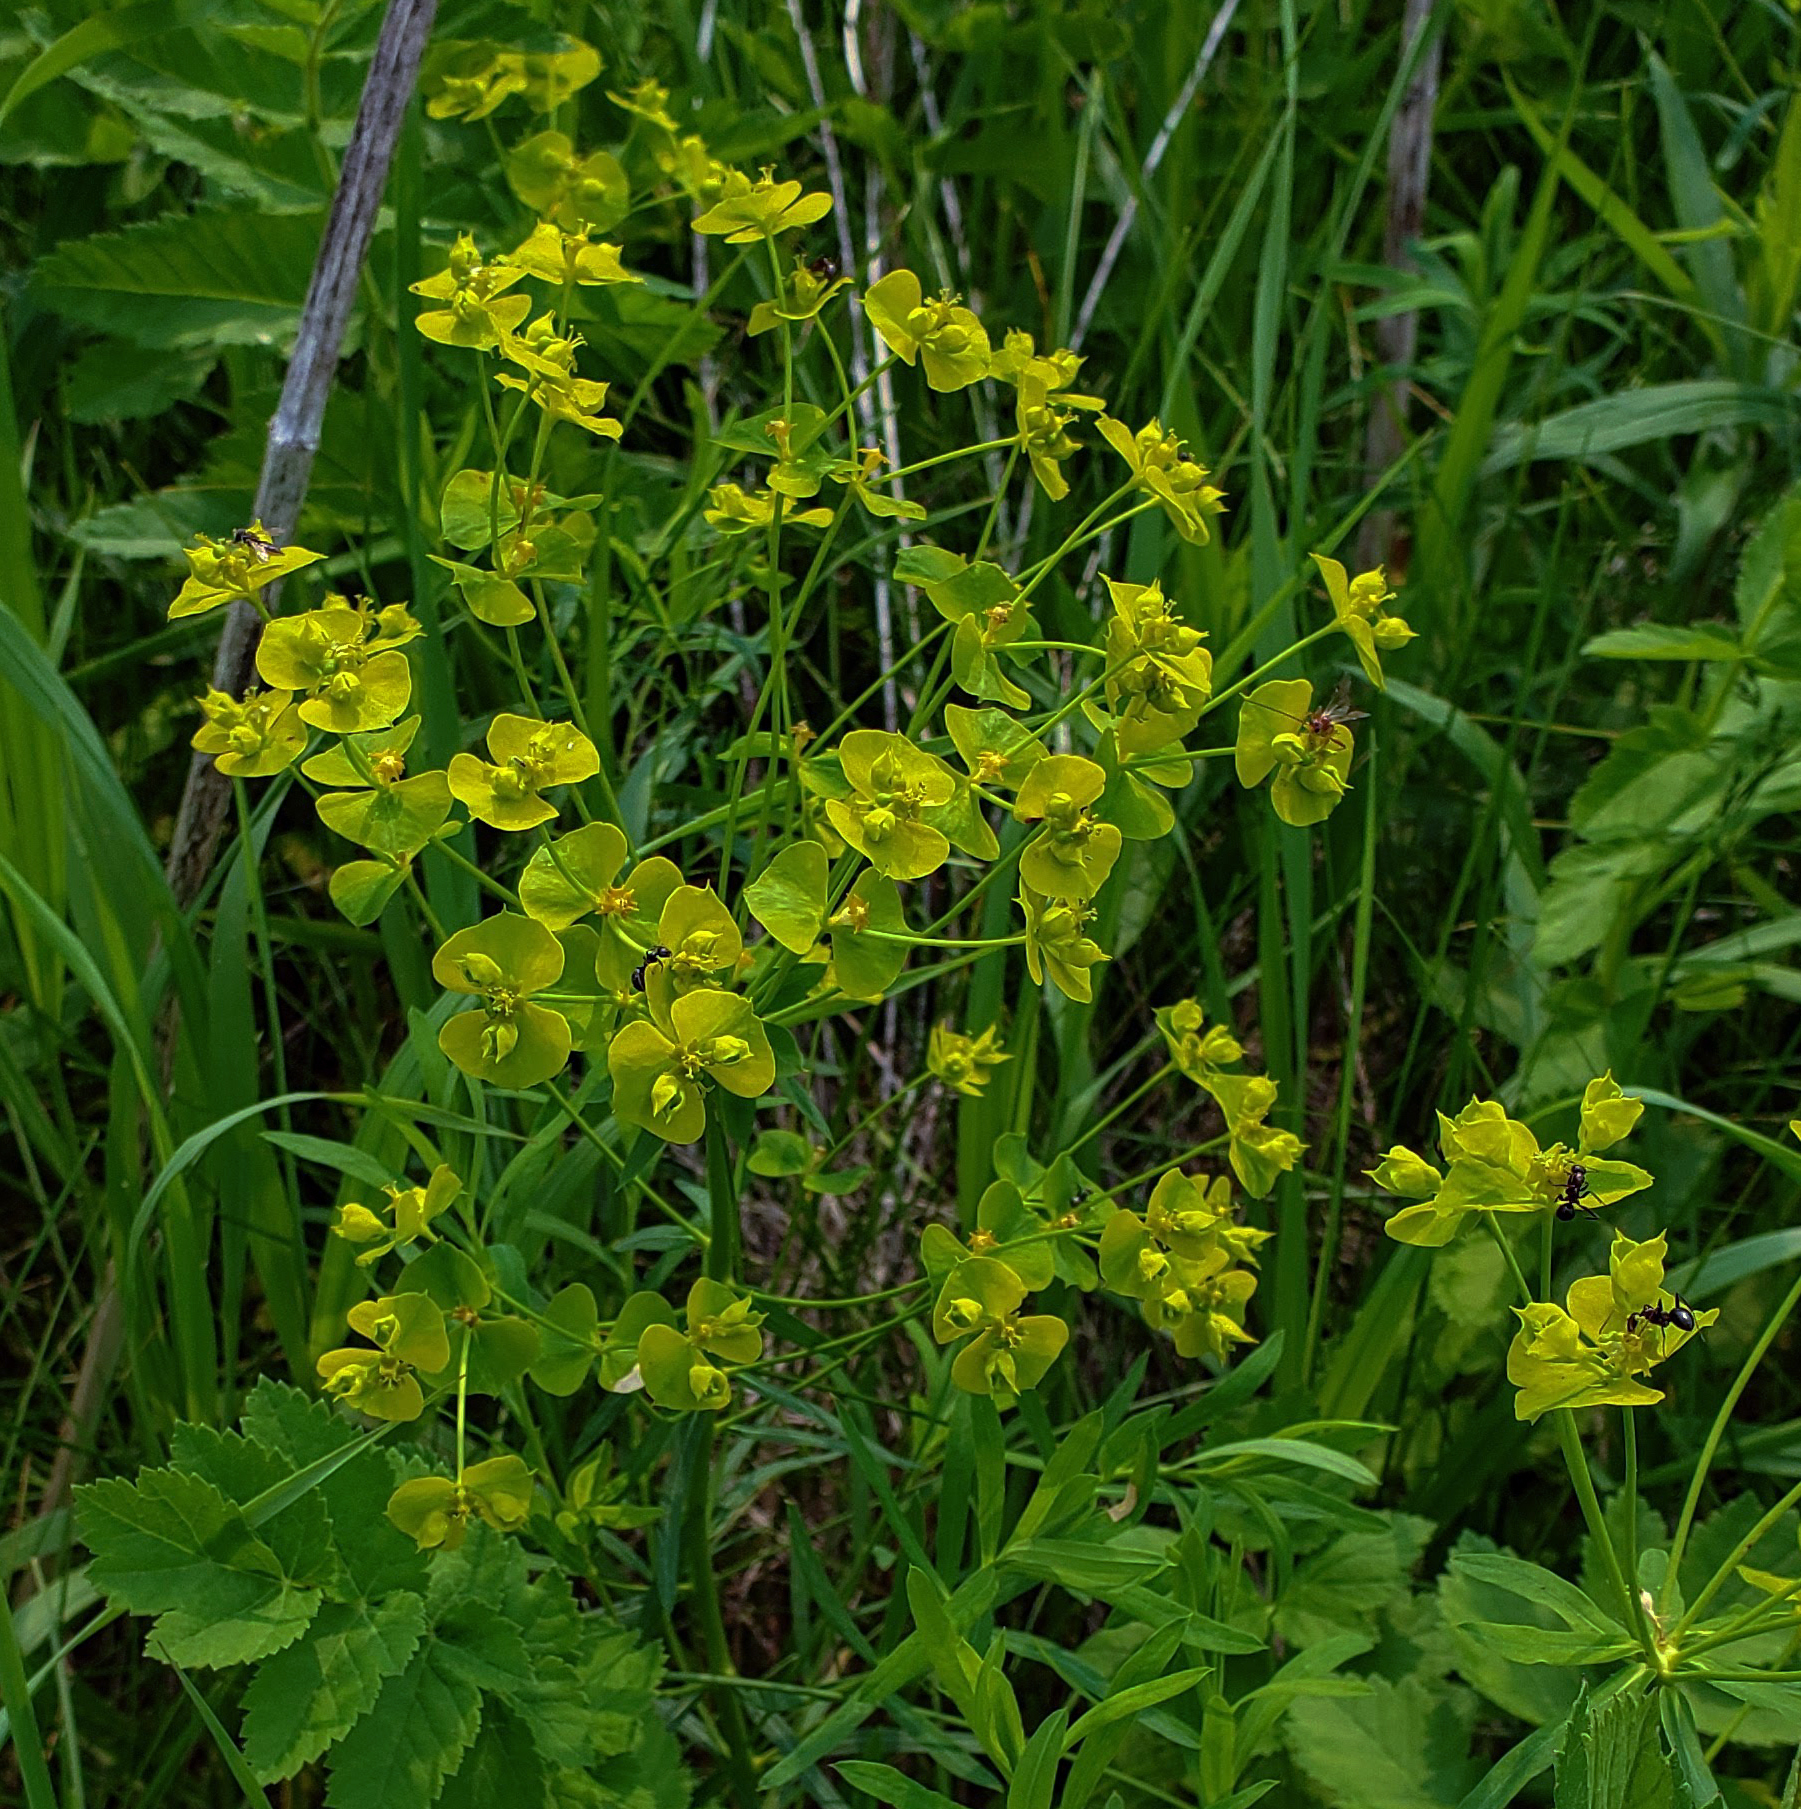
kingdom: Plantae
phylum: Tracheophyta
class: Magnoliopsida
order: Malpighiales
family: Euphorbiaceae
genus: Euphorbia
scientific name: Euphorbia virgata
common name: Leafy spurge
